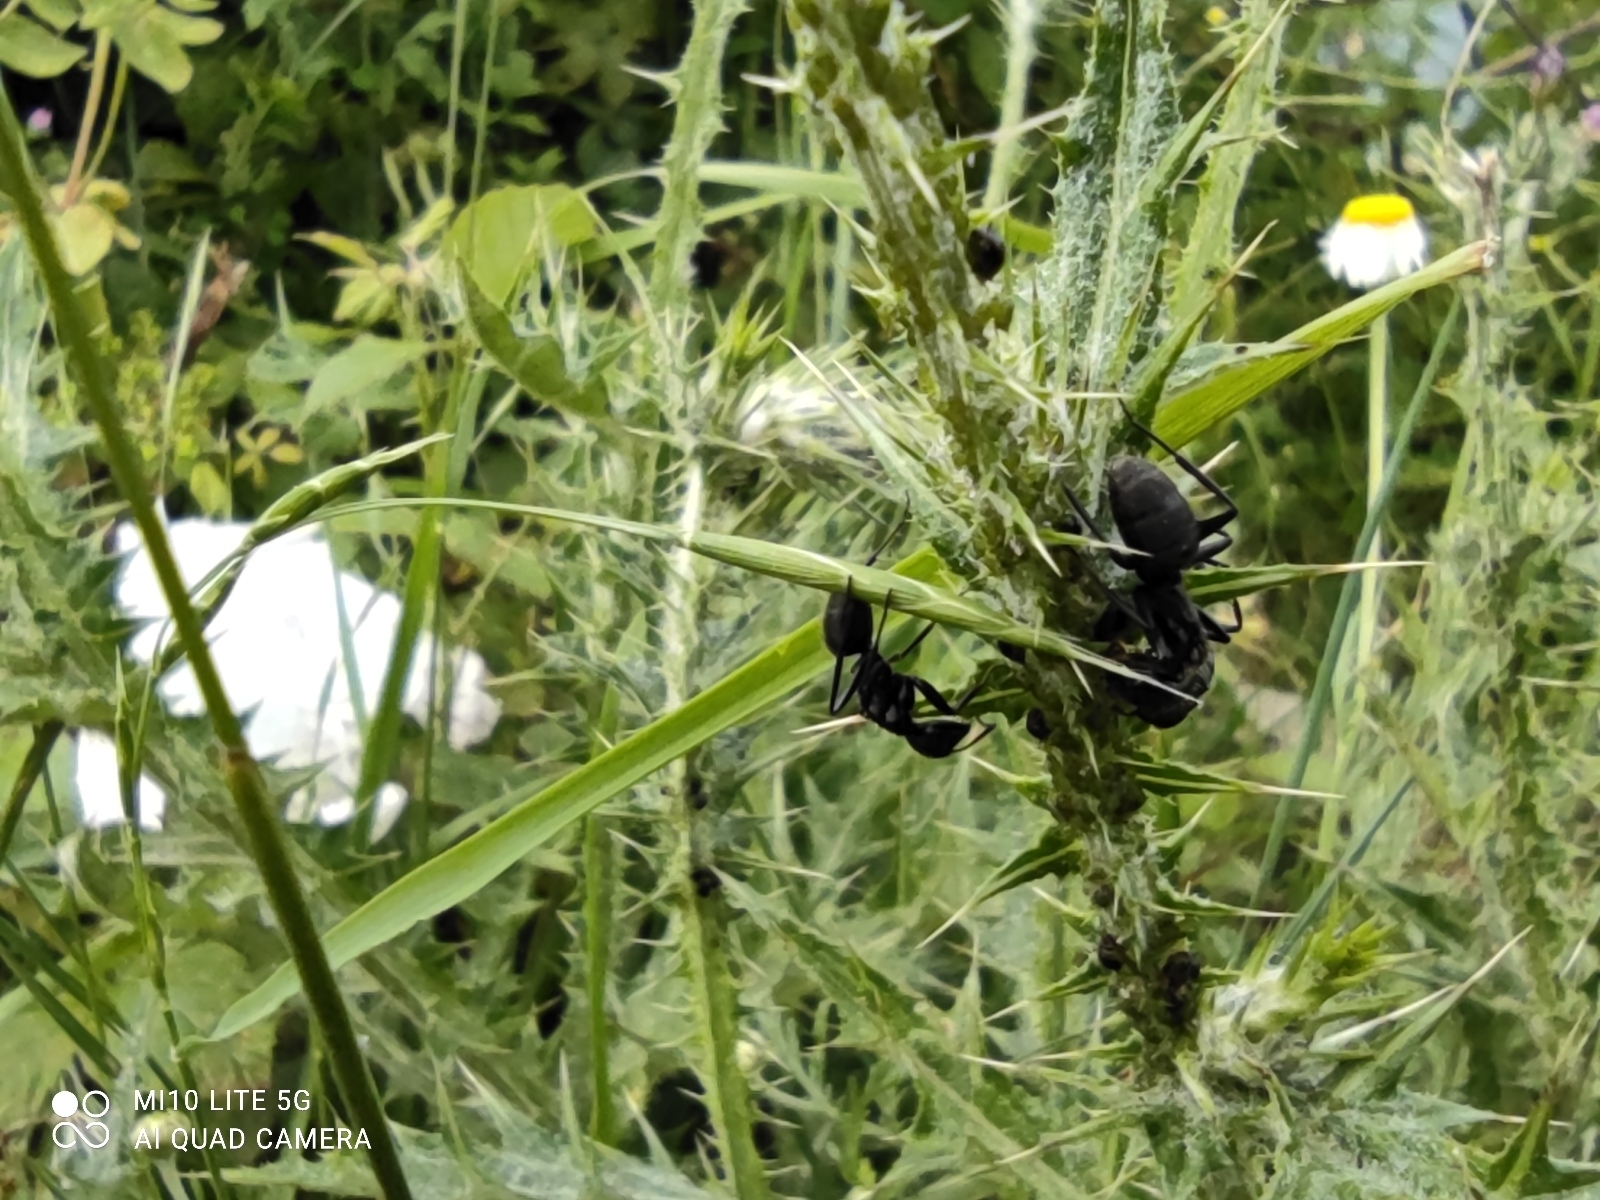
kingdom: Animalia
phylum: Arthropoda
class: Insecta
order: Hymenoptera
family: Formicidae
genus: Camponotus
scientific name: Camponotus vagus
